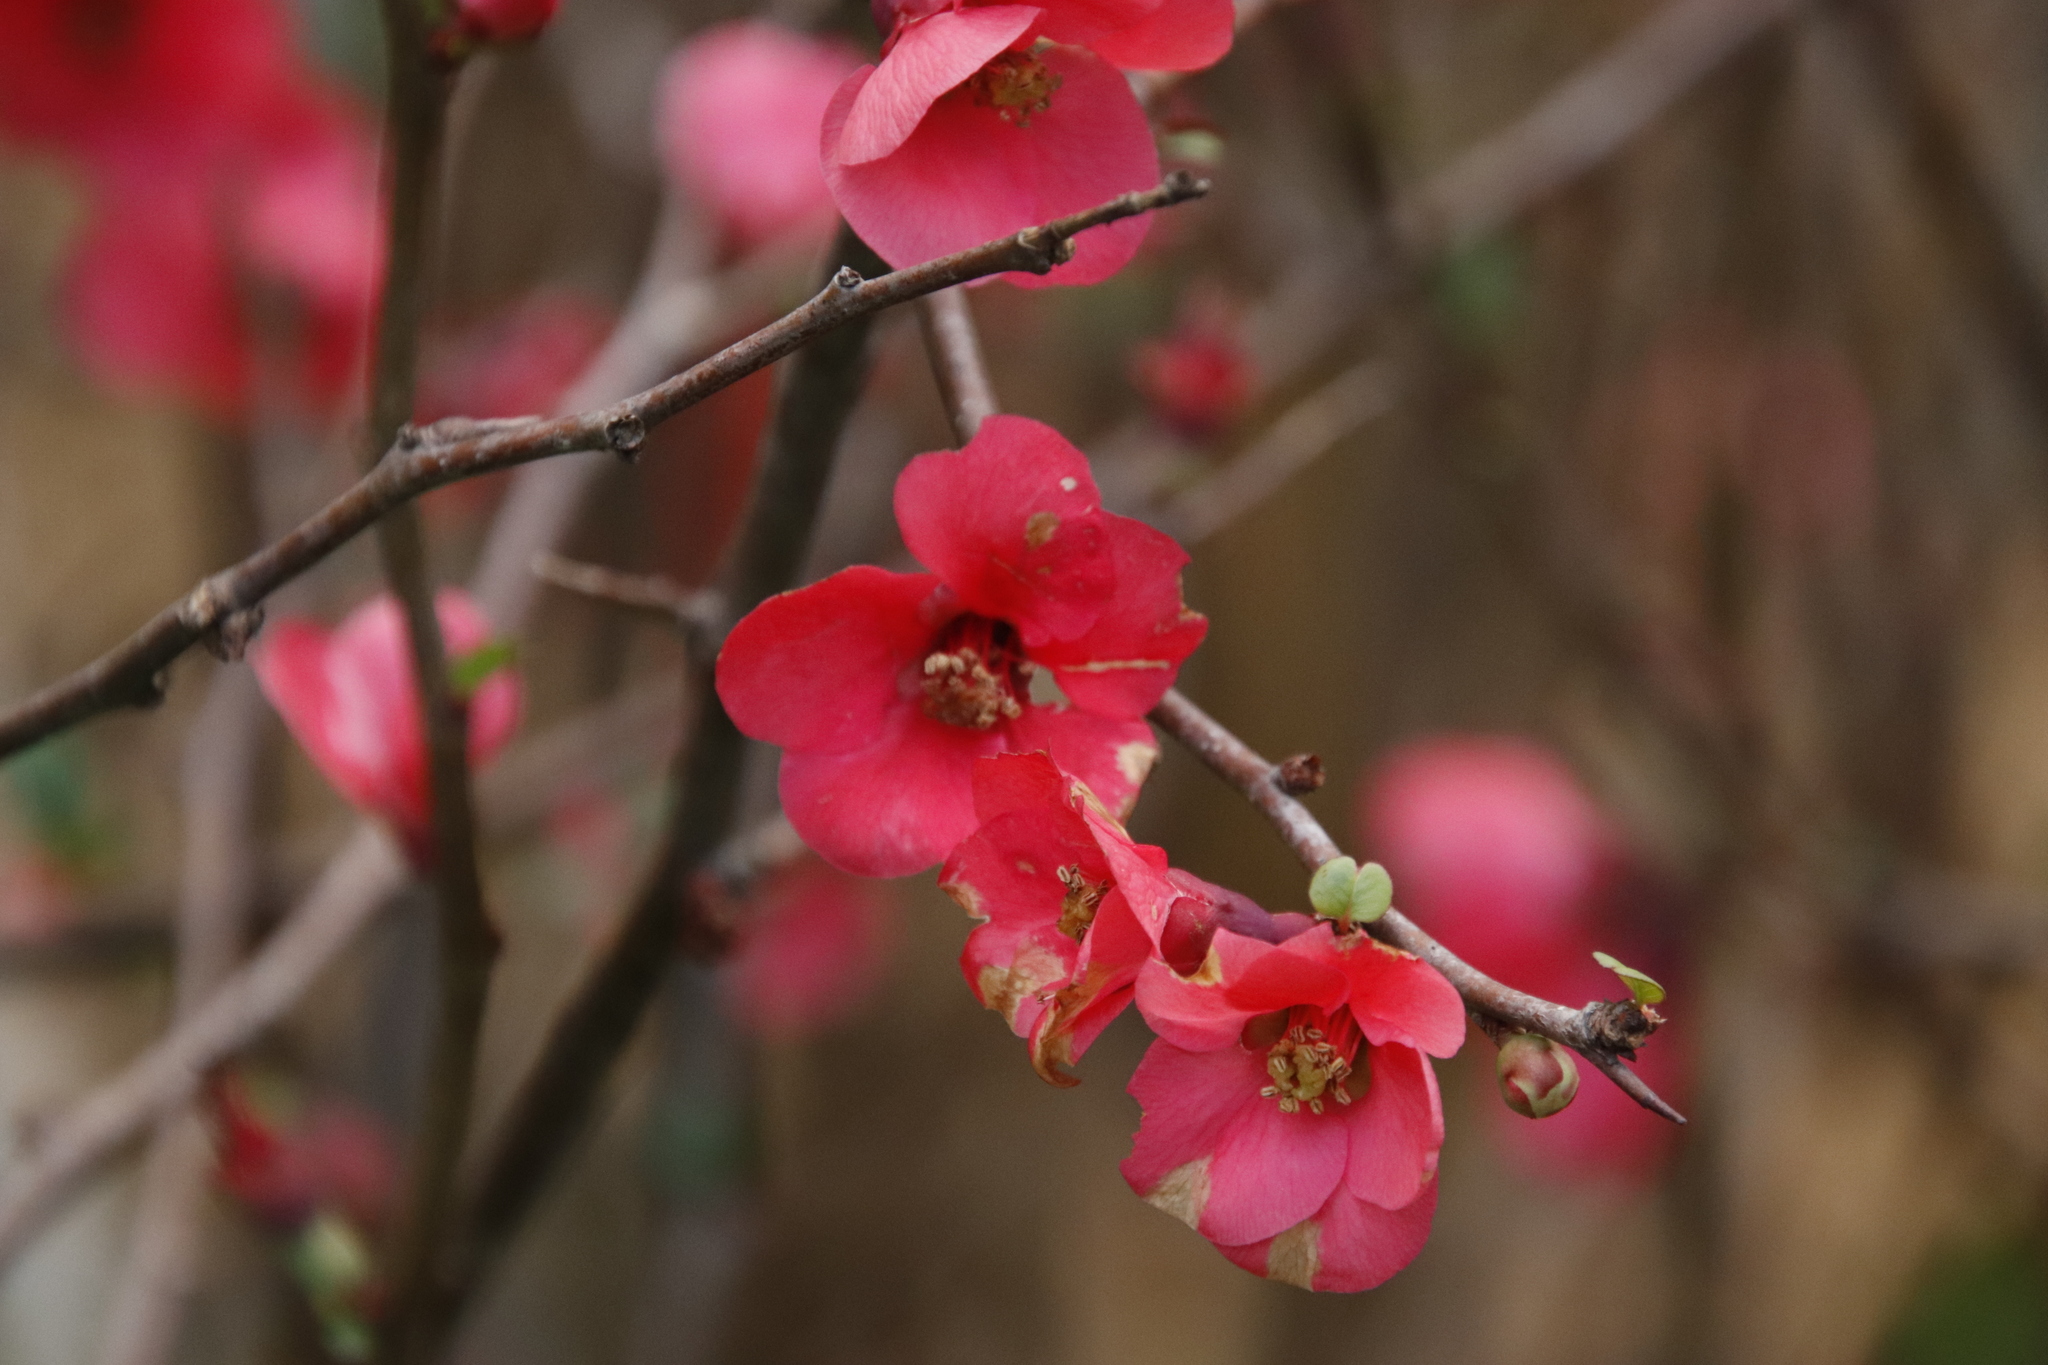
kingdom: Plantae
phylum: Tracheophyta
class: Magnoliopsida
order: Rosales
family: Rosaceae
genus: Chaenomeles
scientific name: Chaenomeles speciosa
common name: Japanese quince
